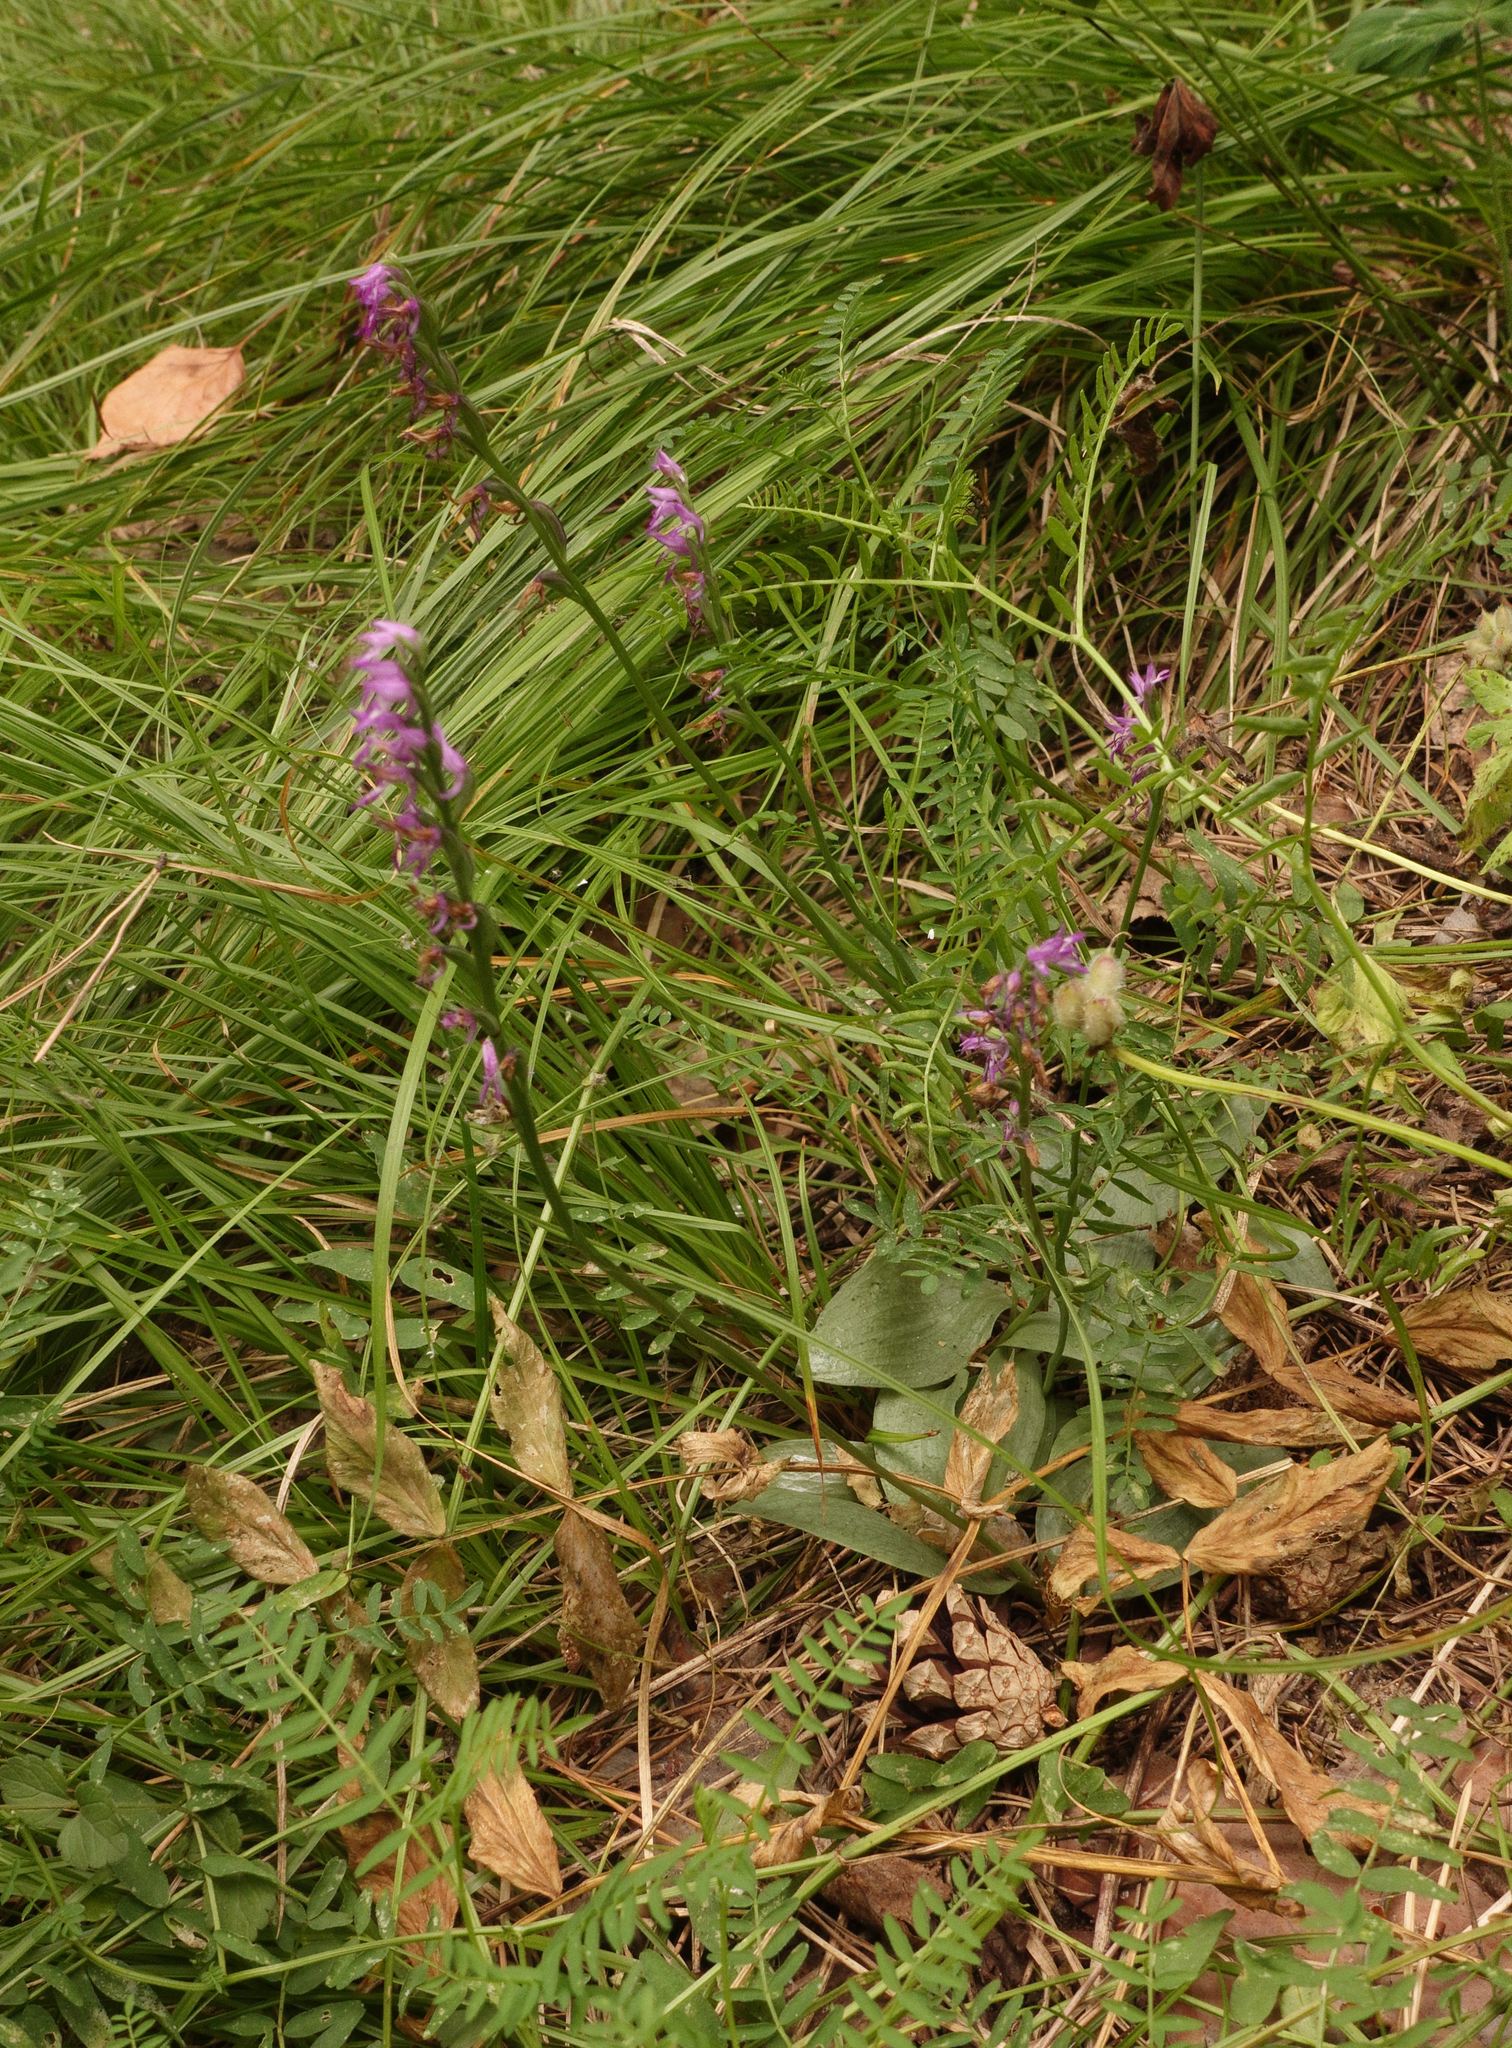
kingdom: Plantae
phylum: Tracheophyta
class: Liliopsida
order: Asparagales
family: Orchidaceae
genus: Hemipilia
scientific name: Hemipilia cucullata
